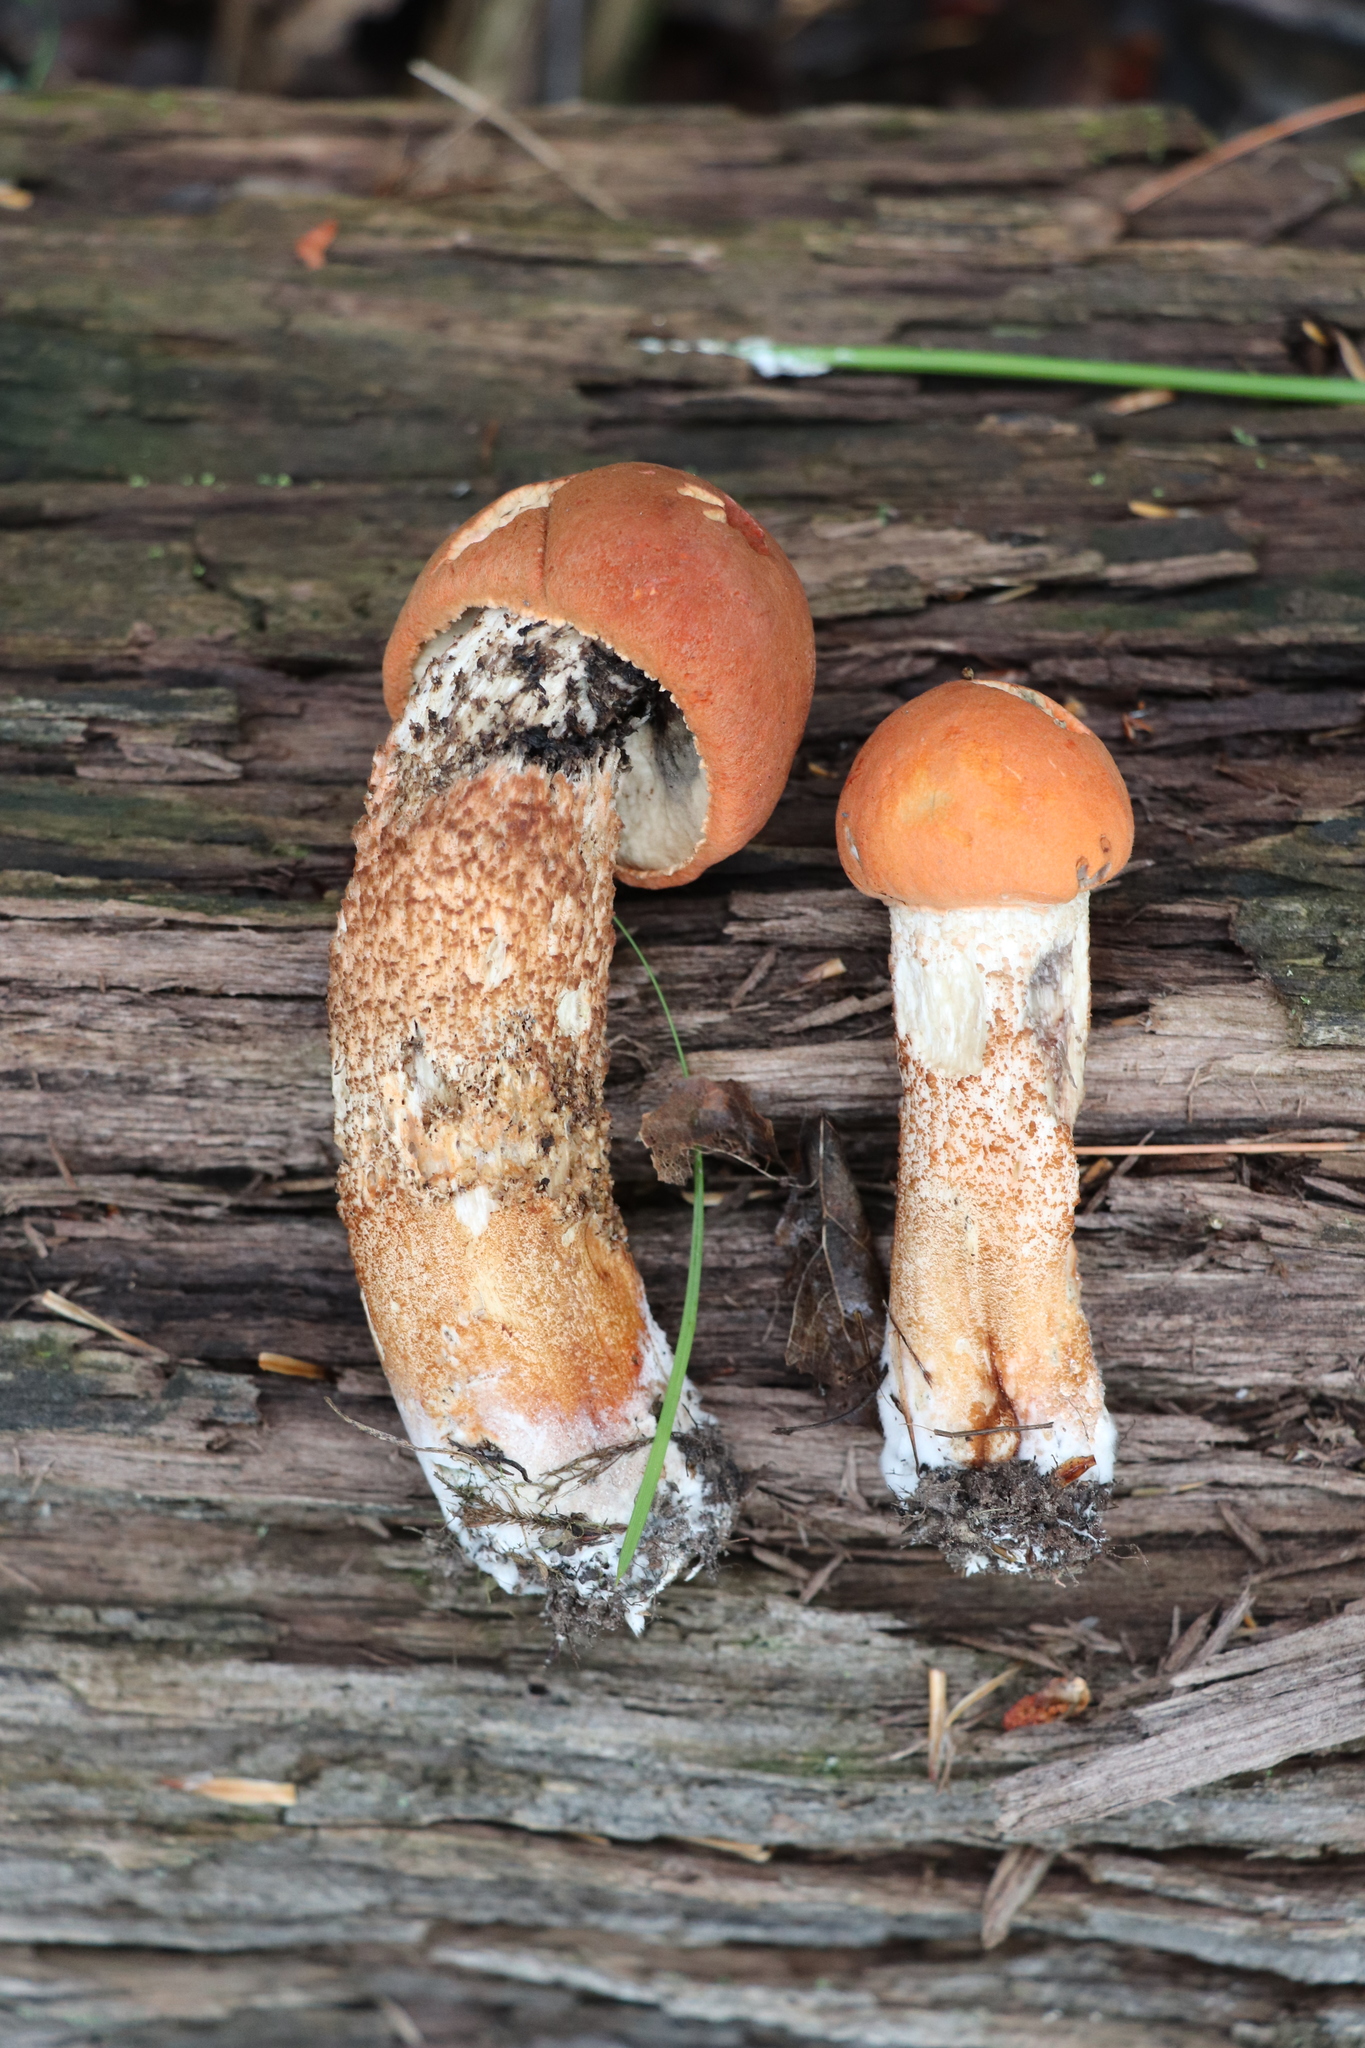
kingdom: Fungi
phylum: Basidiomycota
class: Agaricomycetes
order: Boletales
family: Boletaceae
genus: Leccinum
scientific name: Leccinum aurantiacum
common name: Orange bolete
